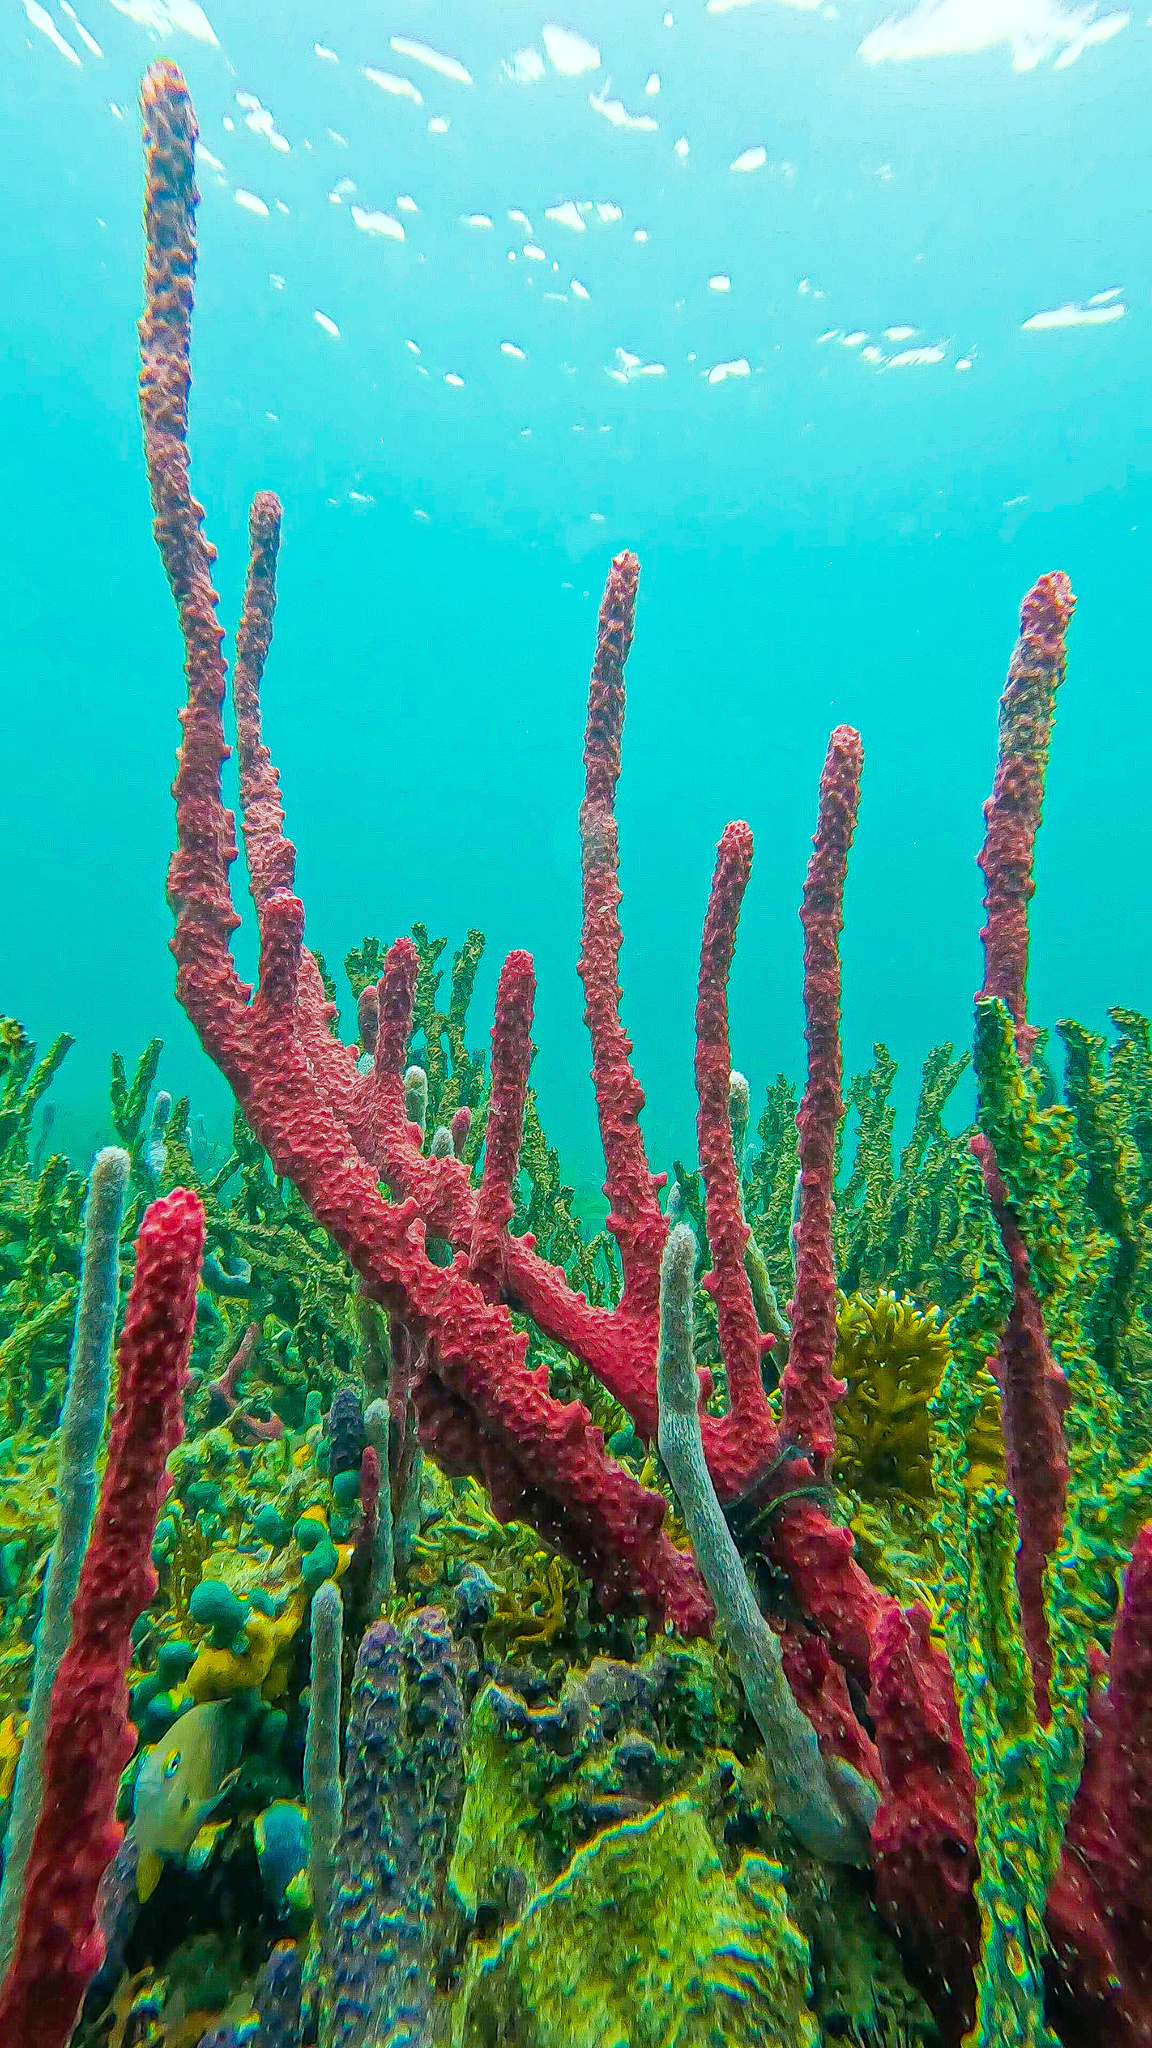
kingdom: Animalia
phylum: Porifera
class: Demospongiae
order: Haplosclerida
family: Niphatidae
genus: Amphimedon
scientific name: Amphimedon compressa
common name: Red sponge
